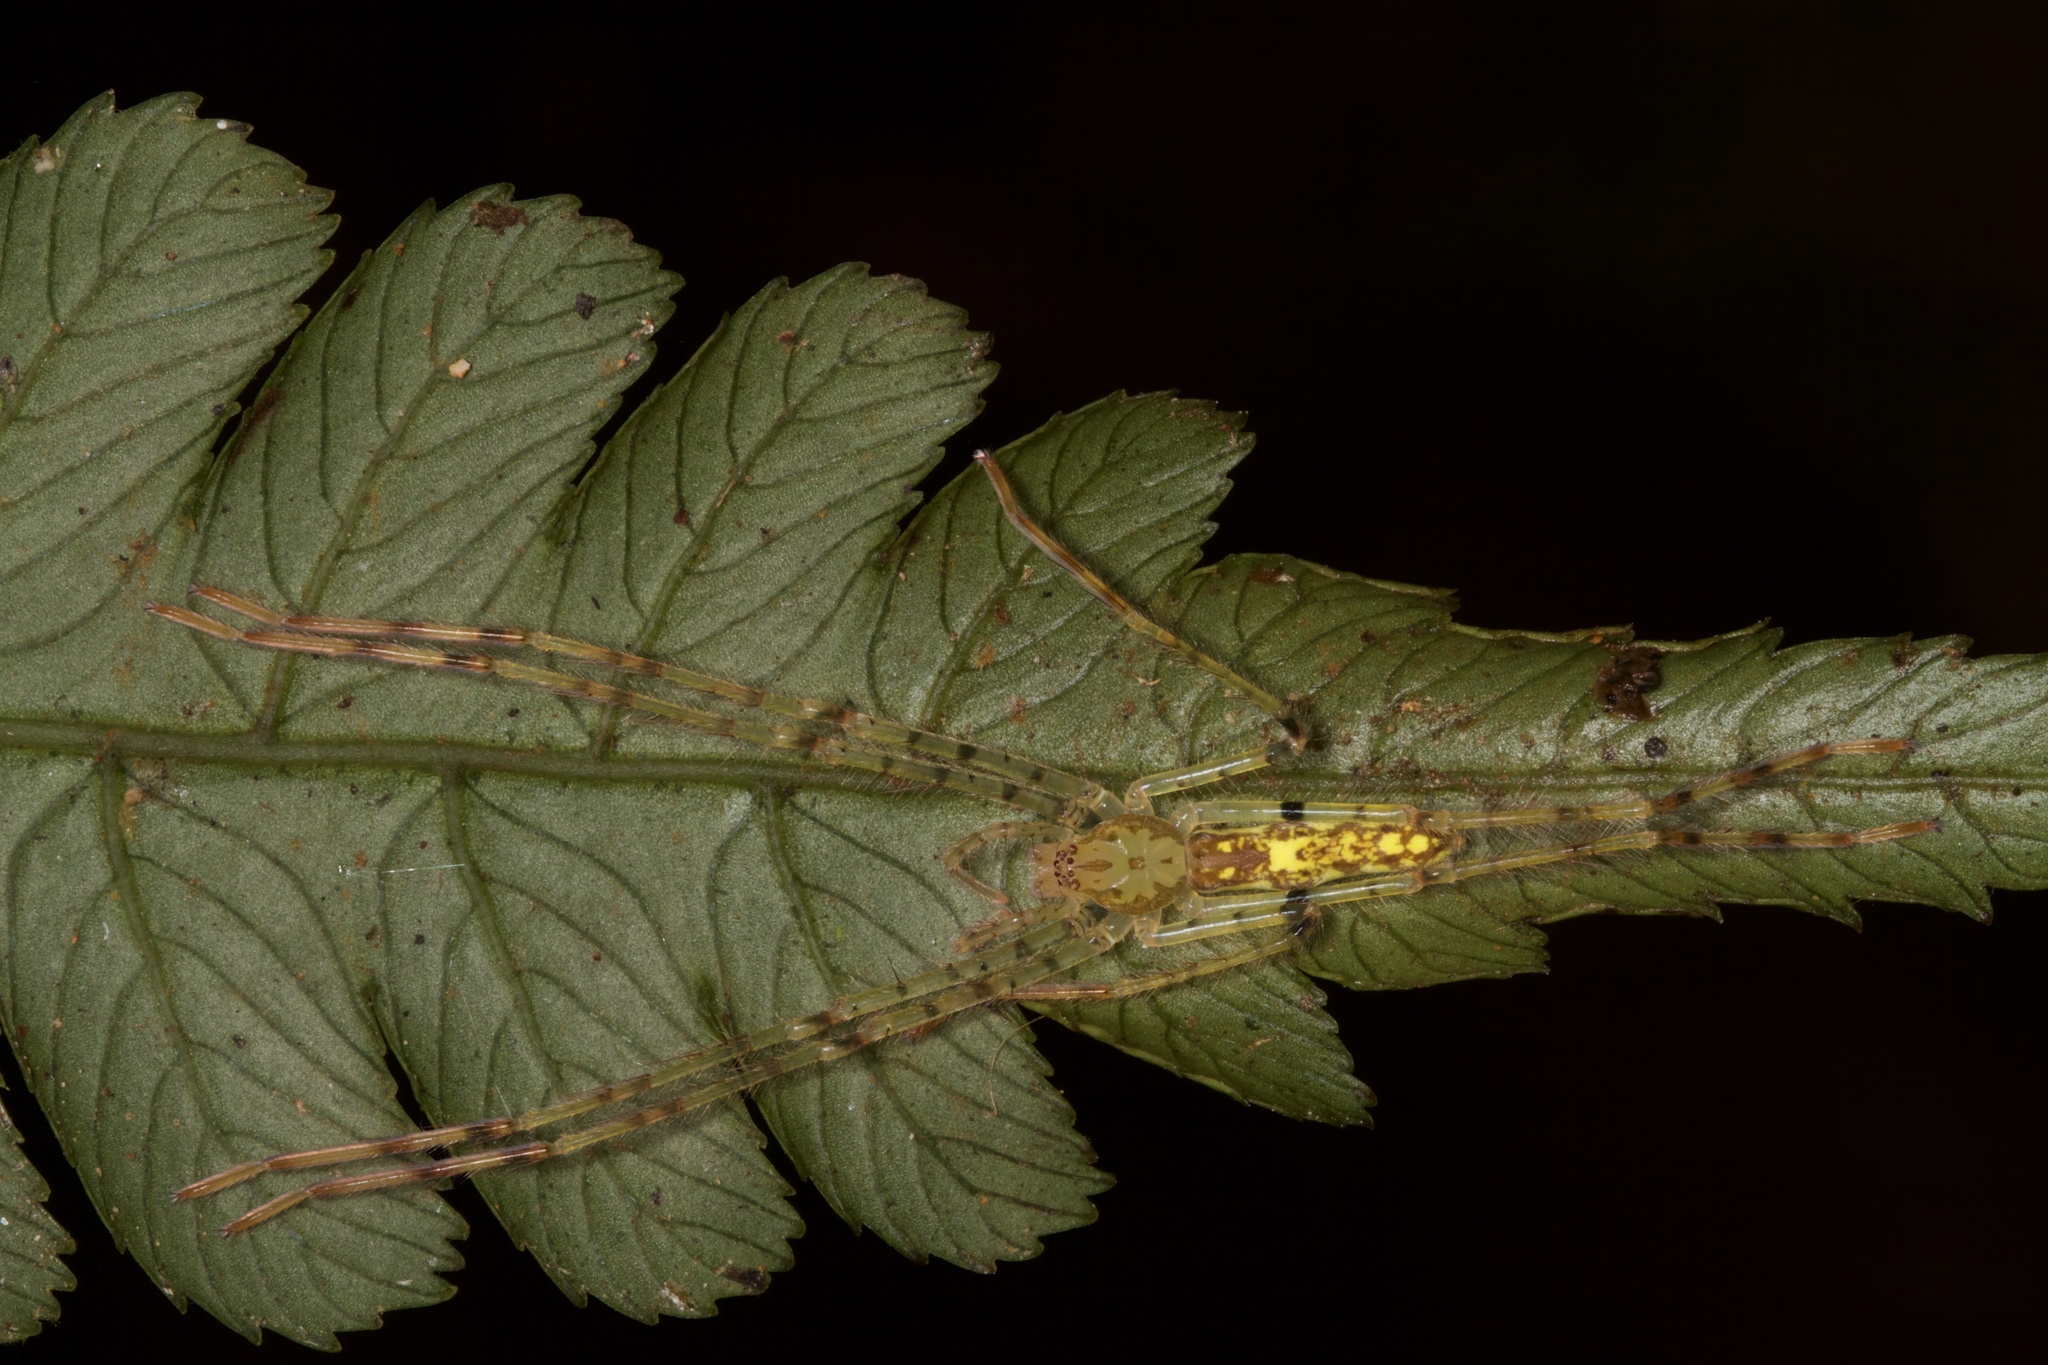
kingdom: Animalia
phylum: Arthropoda
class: Arachnida
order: Araneae
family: Sparassidae
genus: Anaptomecus
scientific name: Anaptomecus longiventris
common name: Huntsman spiders
